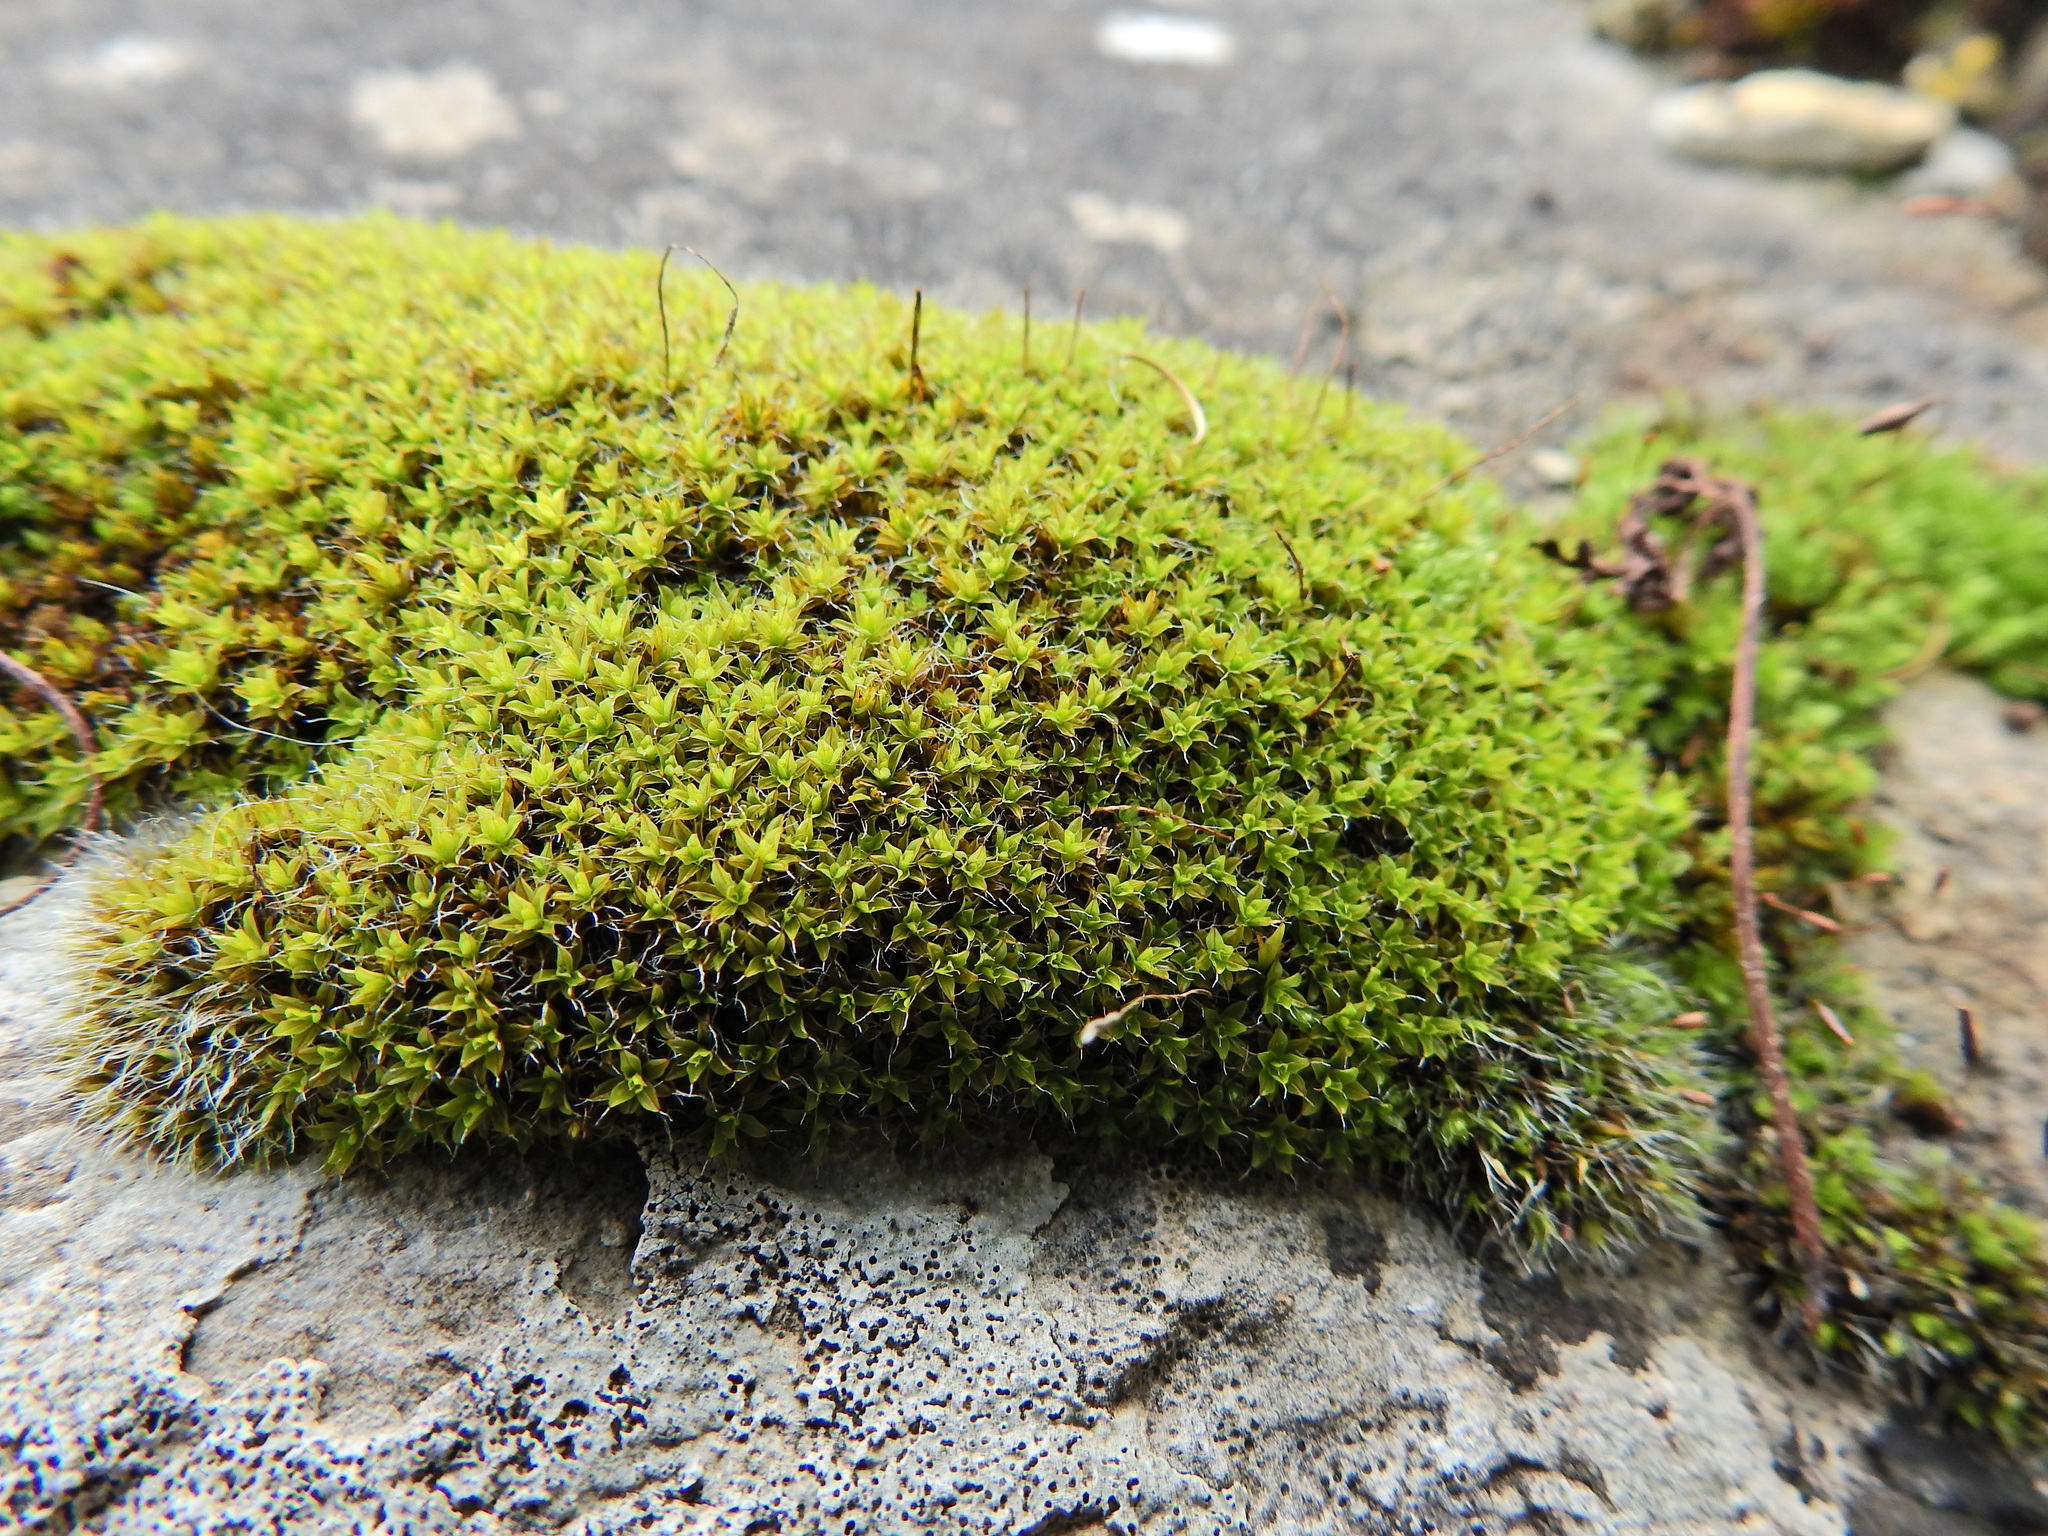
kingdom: Plantae
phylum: Bryophyta
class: Bryopsida
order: Pottiales
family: Pottiaceae
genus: Syntrichia
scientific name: Syntrichia montana
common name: Intermediate screw-moss
